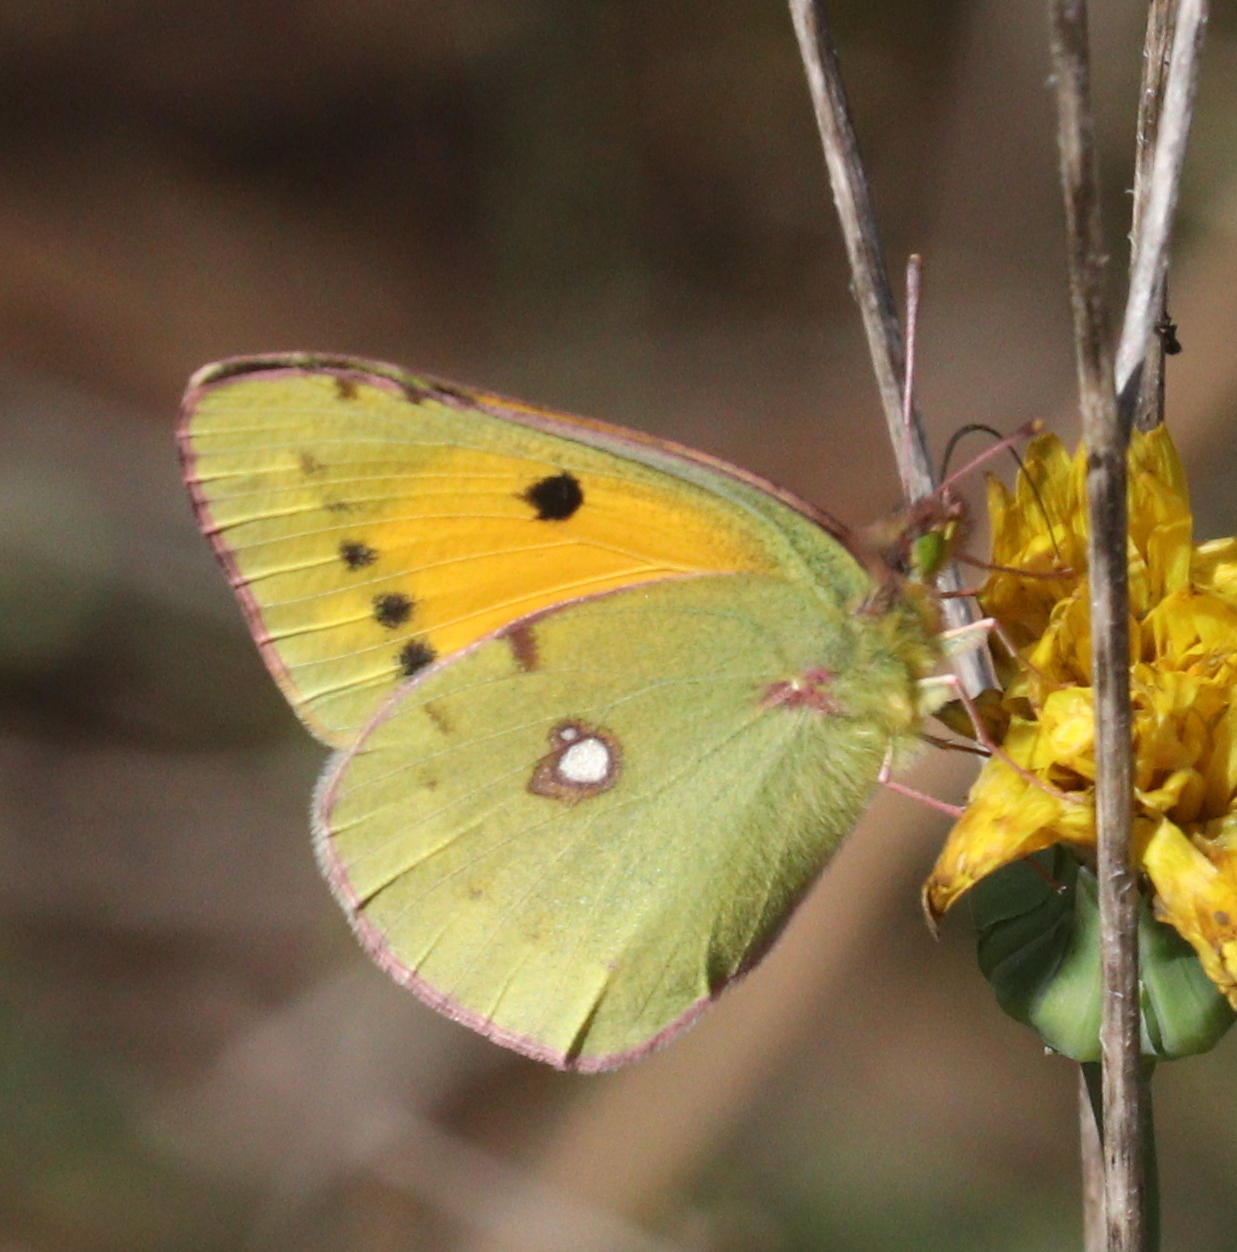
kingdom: Animalia
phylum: Arthropoda
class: Insecta
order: Lepidoptera
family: Pieridae
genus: Colias
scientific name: Colias croceus
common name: Clouded yellow
